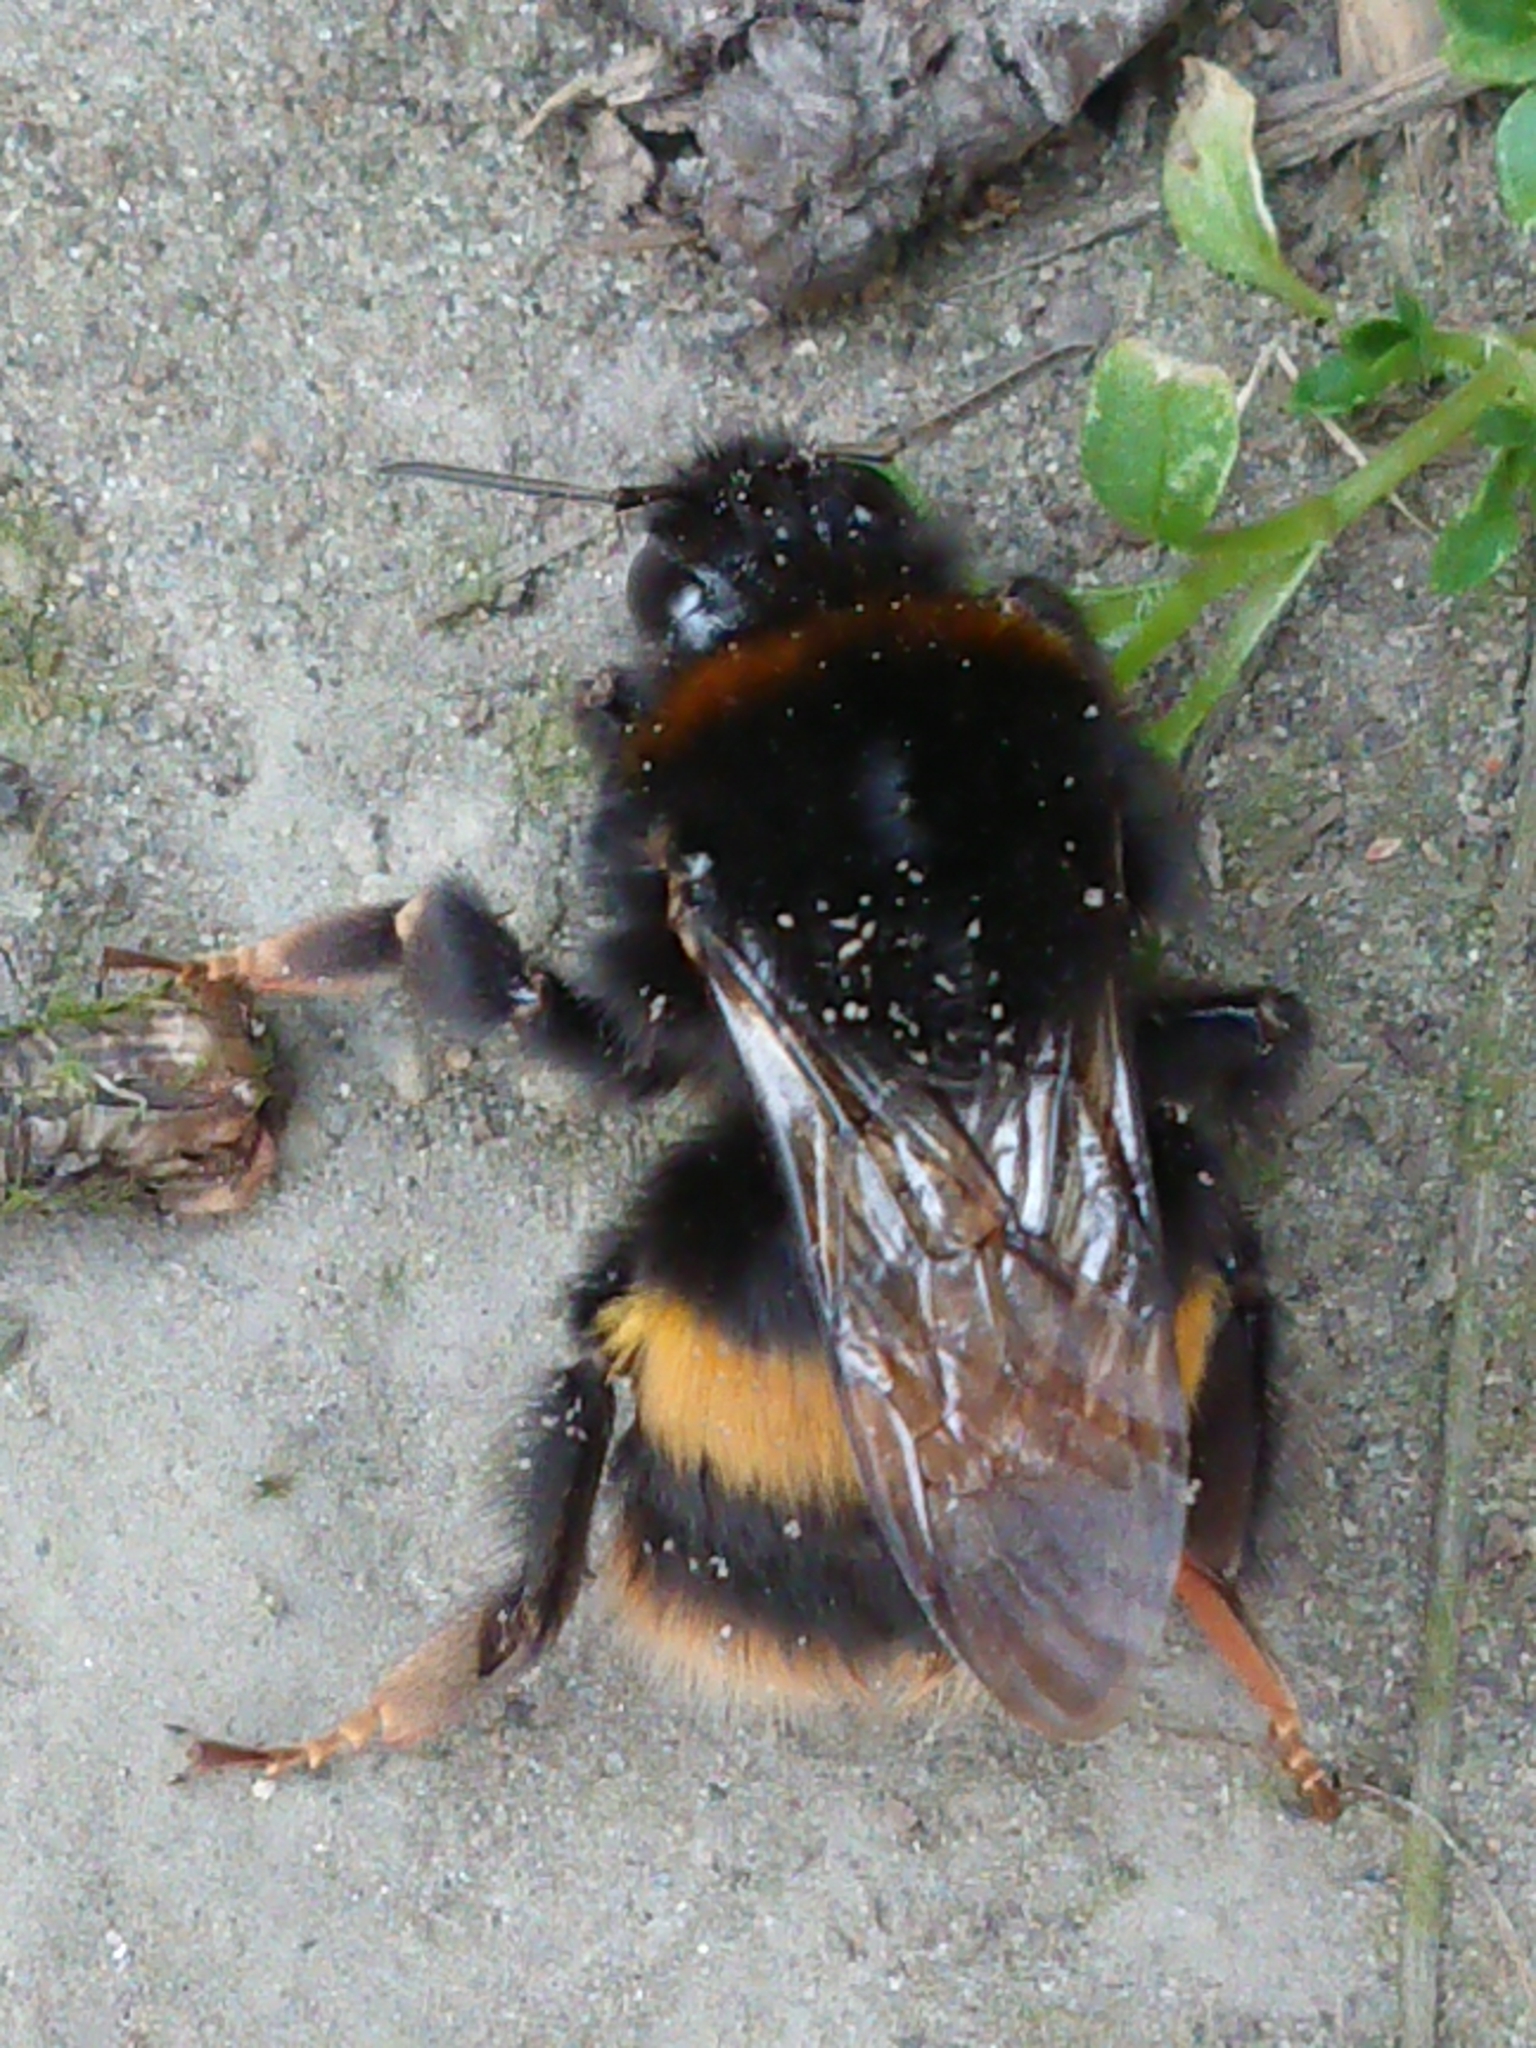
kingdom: Animalia
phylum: Arthropoda
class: Insecta
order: Hymenoptera
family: Apidae
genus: Bombus
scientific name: Bombus terrestris
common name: Buff-tailed bumblebee
